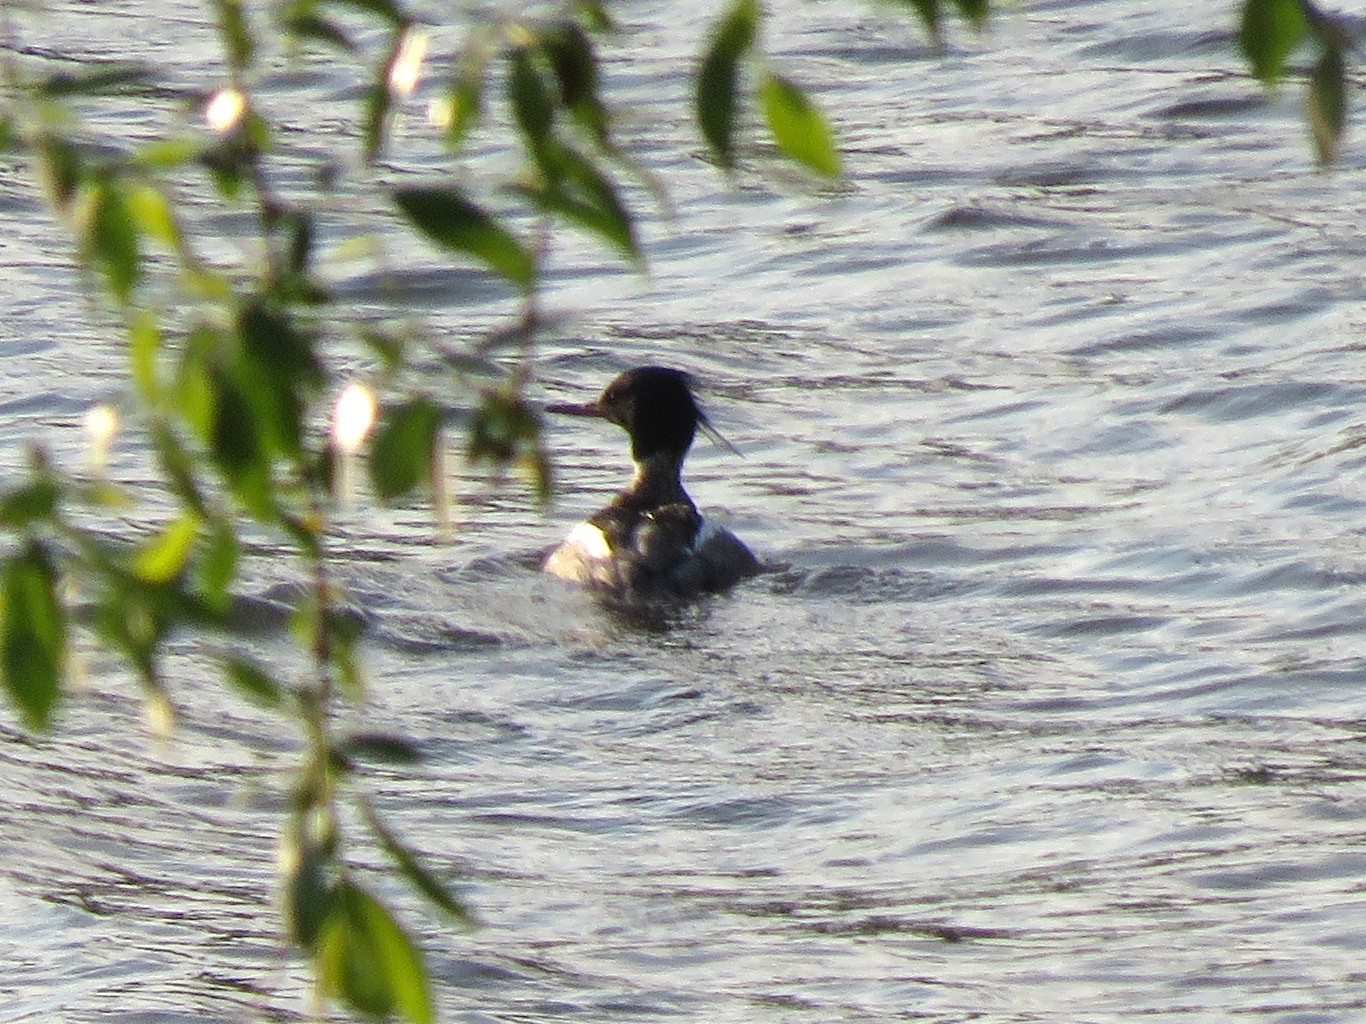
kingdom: Animalia
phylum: Chordata
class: Aves
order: Anseriformes
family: Anatidae
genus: Mergus
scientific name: Mergus serrator
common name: Red-breasted merganser
